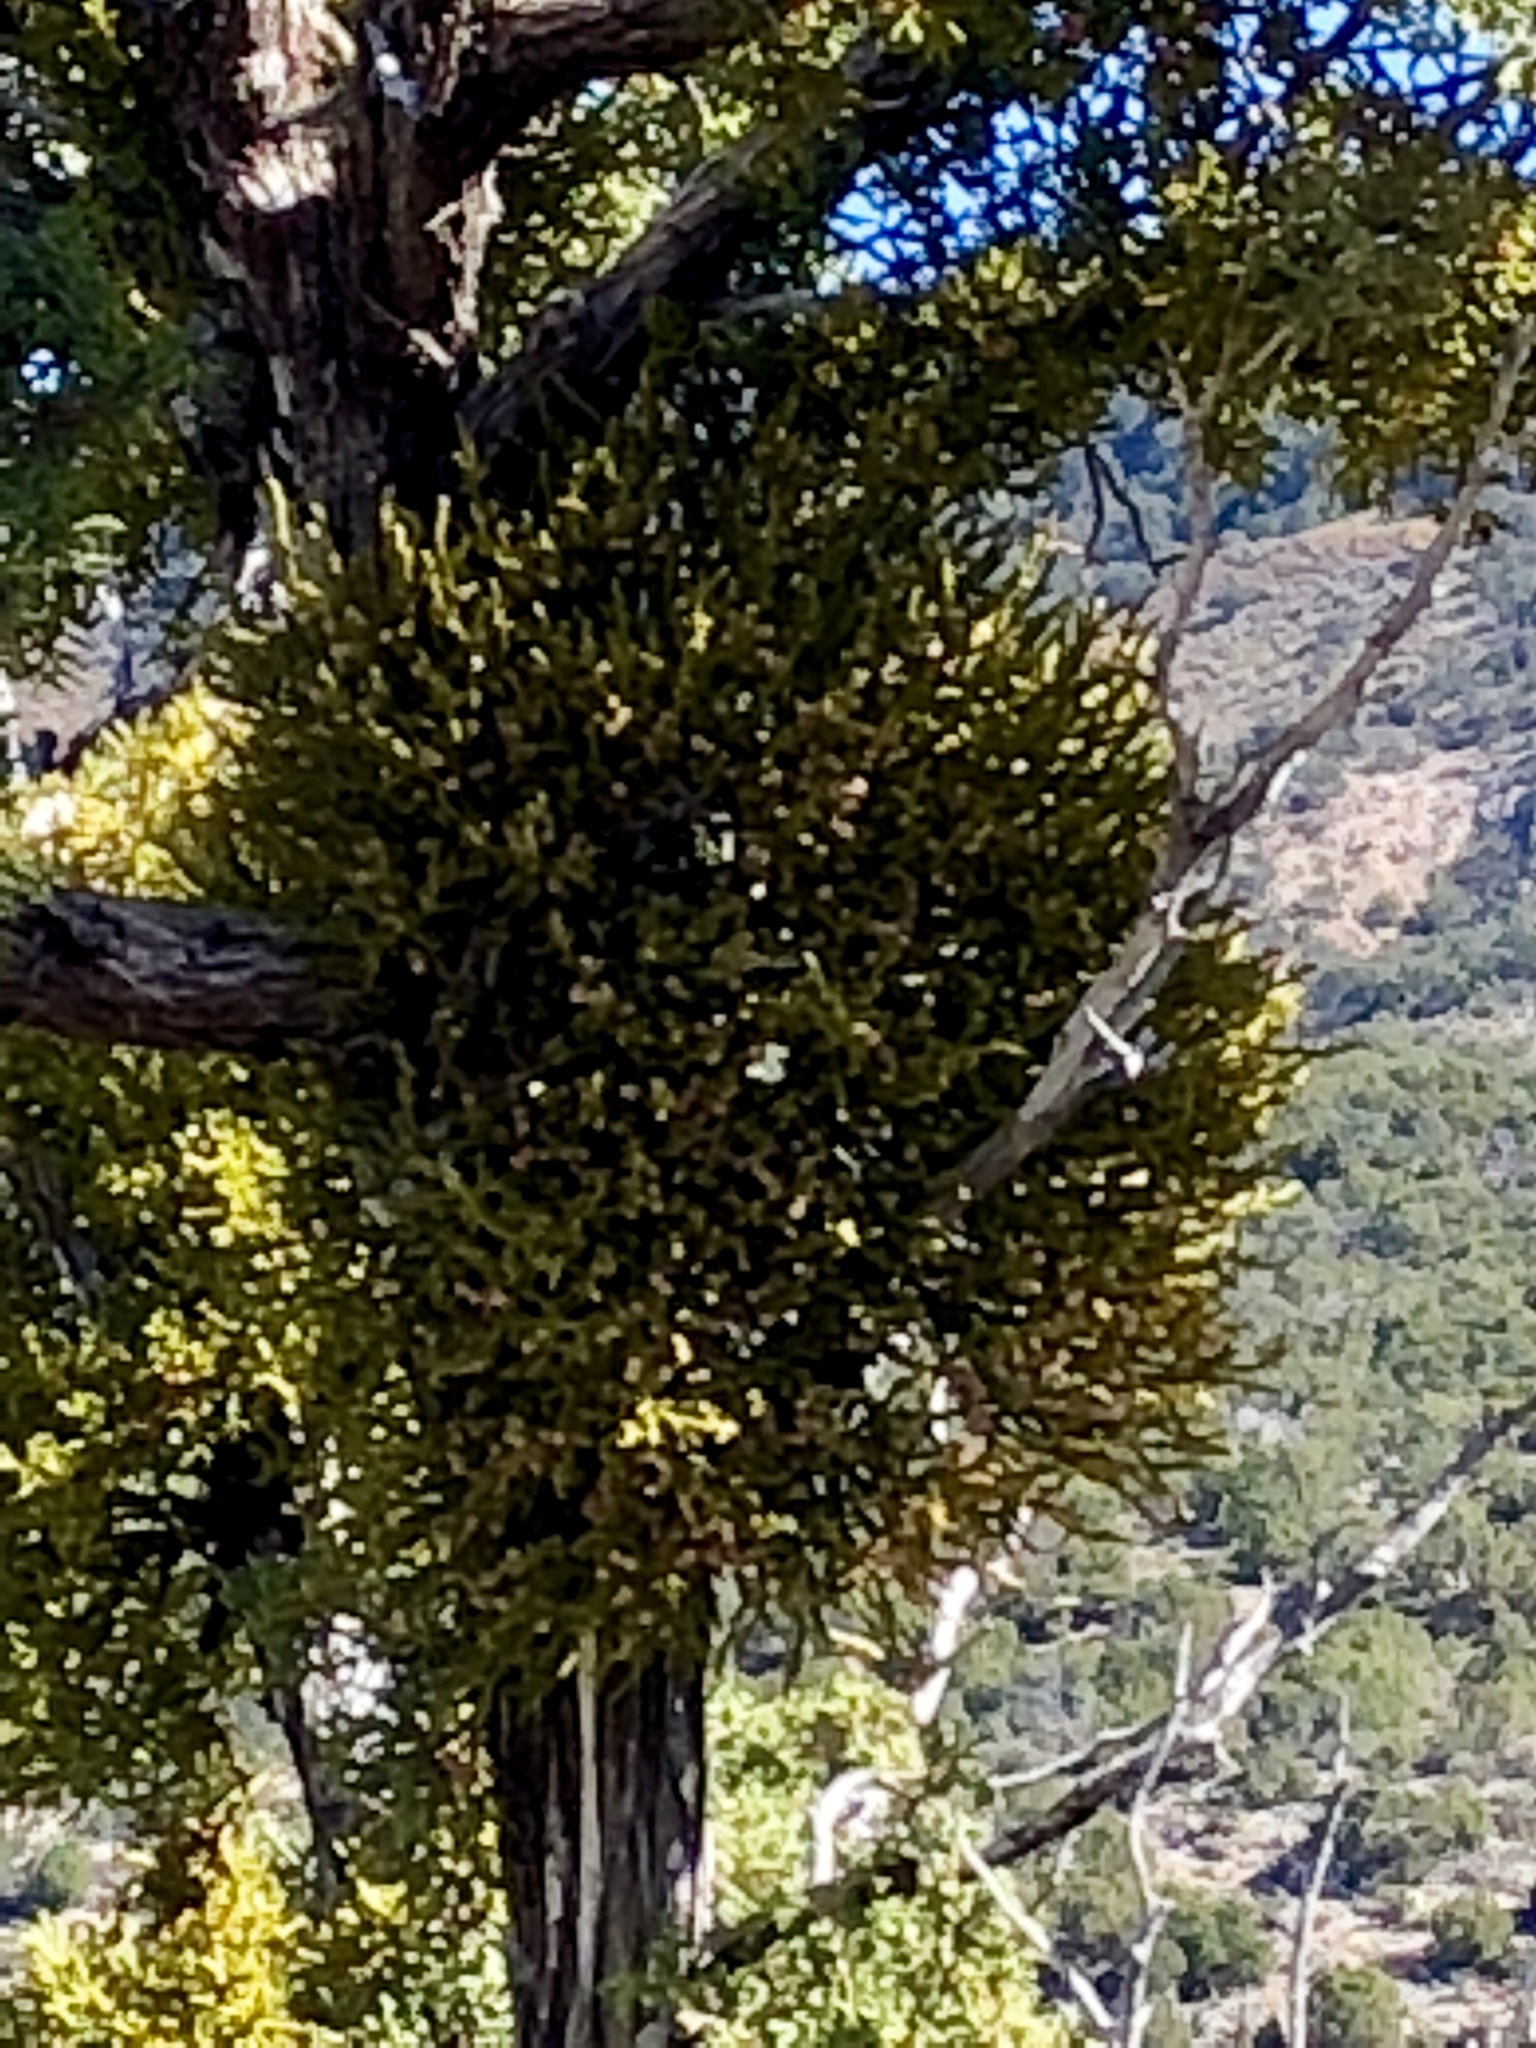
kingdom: Plantae
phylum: Tracheophyta
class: Magnoliopsida
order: Santalales
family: Viscaceae
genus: Phoradendron
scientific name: Phoradendron juniperinum
